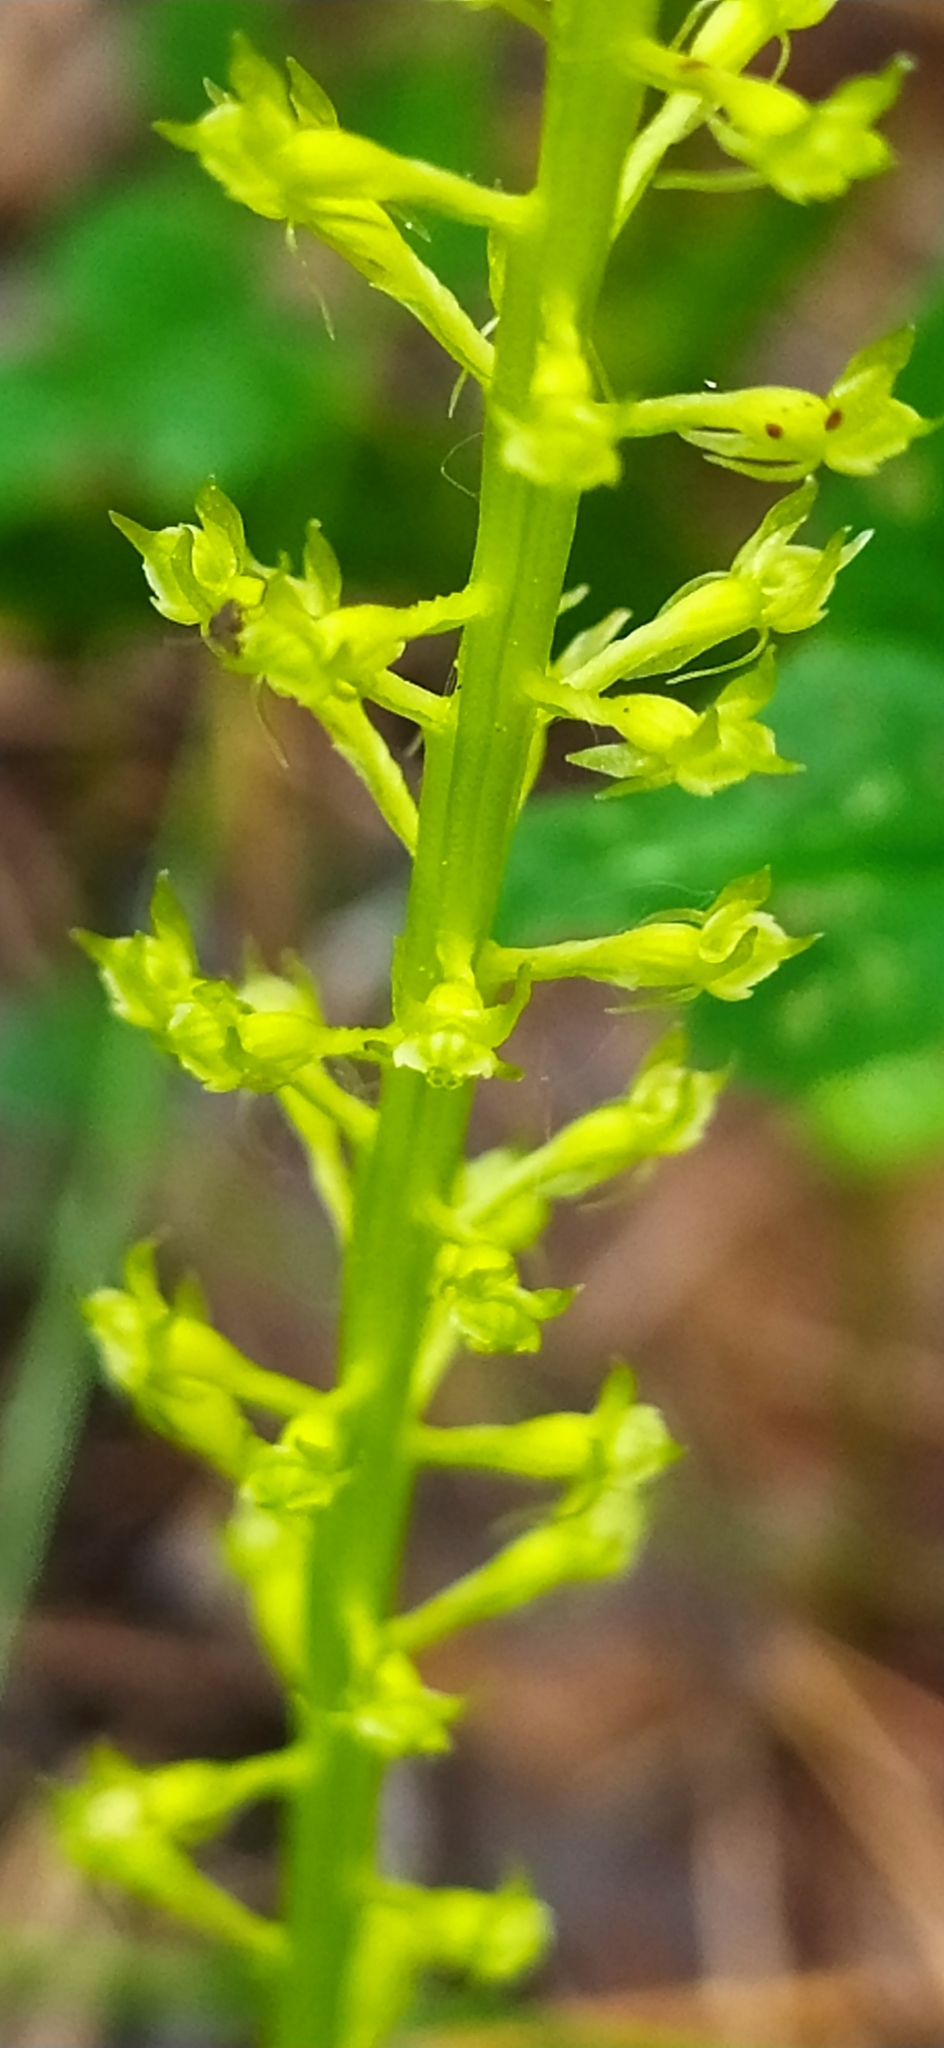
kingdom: Plantae
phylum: Tracheophyta
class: Liliopsida
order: Asparagales
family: Orchidaceae
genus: Malaxis
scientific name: Malaxis monophyllos
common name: White adder's-mouth
